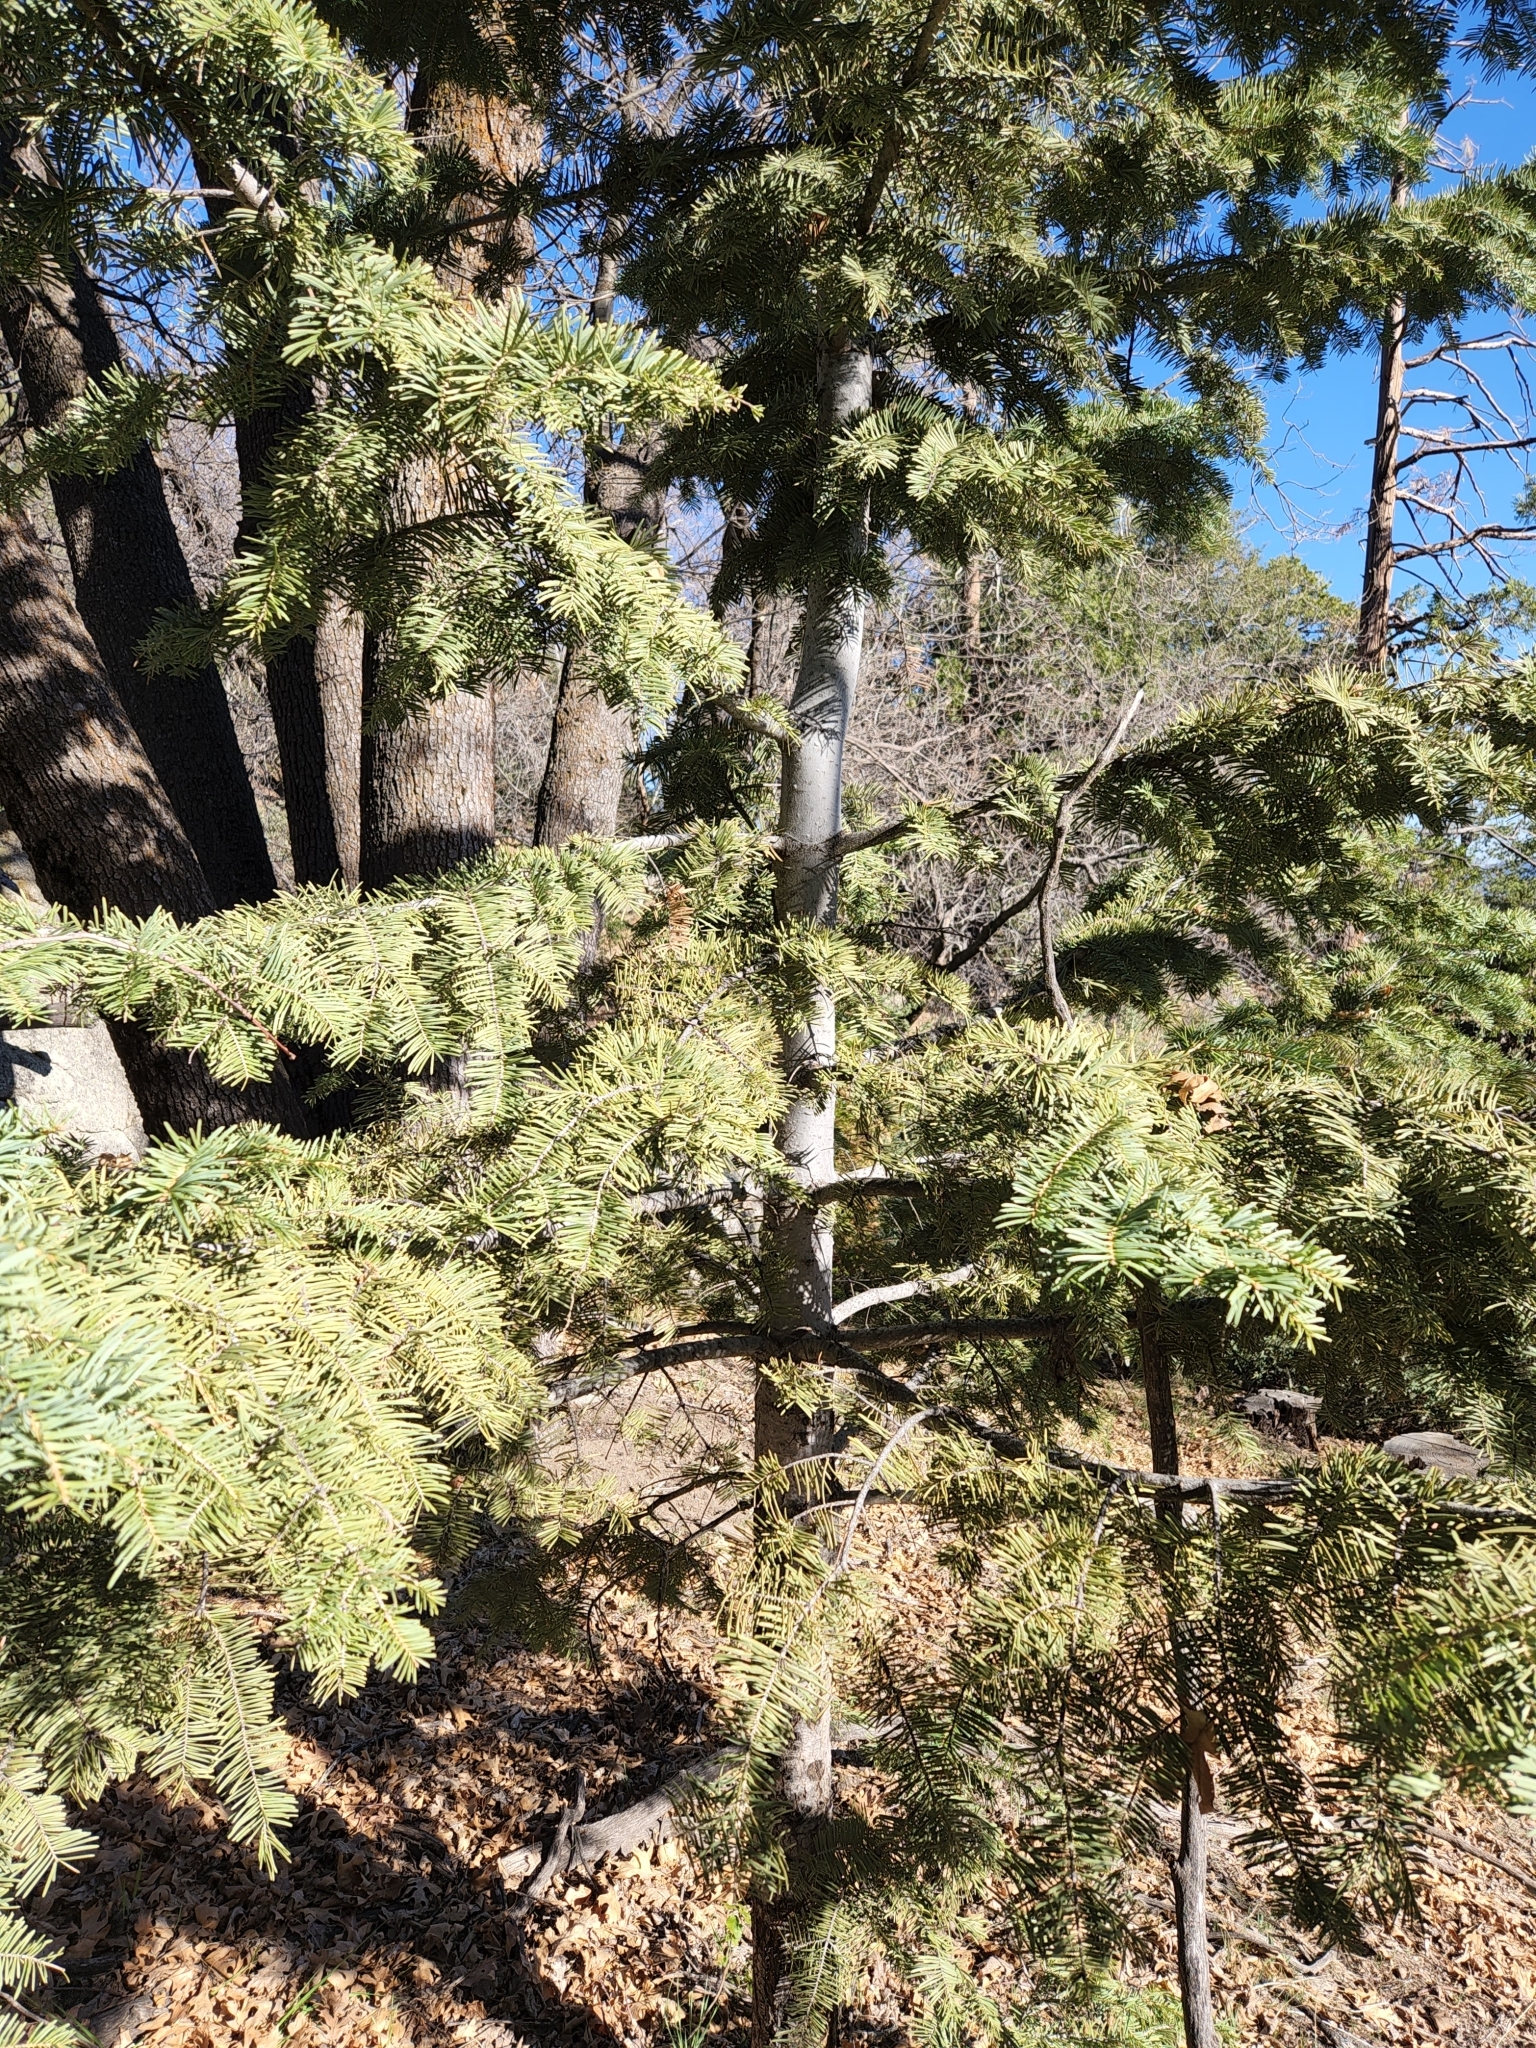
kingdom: Plantae
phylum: Tracheophyta
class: Pinopsida
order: Pinales
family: Pinaceae
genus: Abies
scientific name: Abies concolor
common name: Colorado fir
